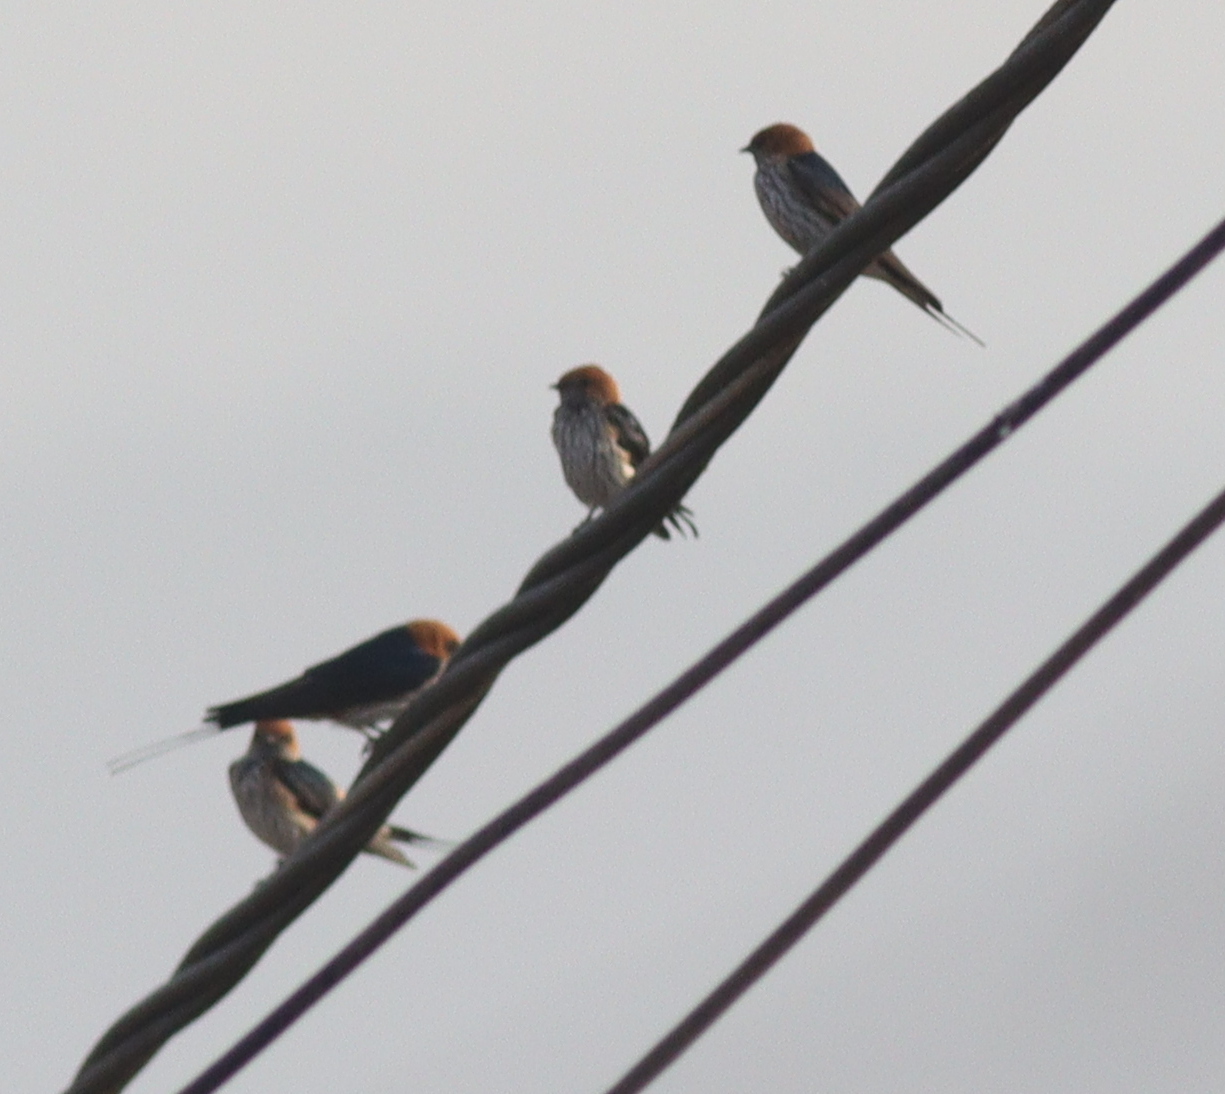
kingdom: Animalia
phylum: Chordata
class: Aves
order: Passeriformes
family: Hirundinidae
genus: Cecropis
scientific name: Cecropis abyssinica
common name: Lesser striped-swallow
